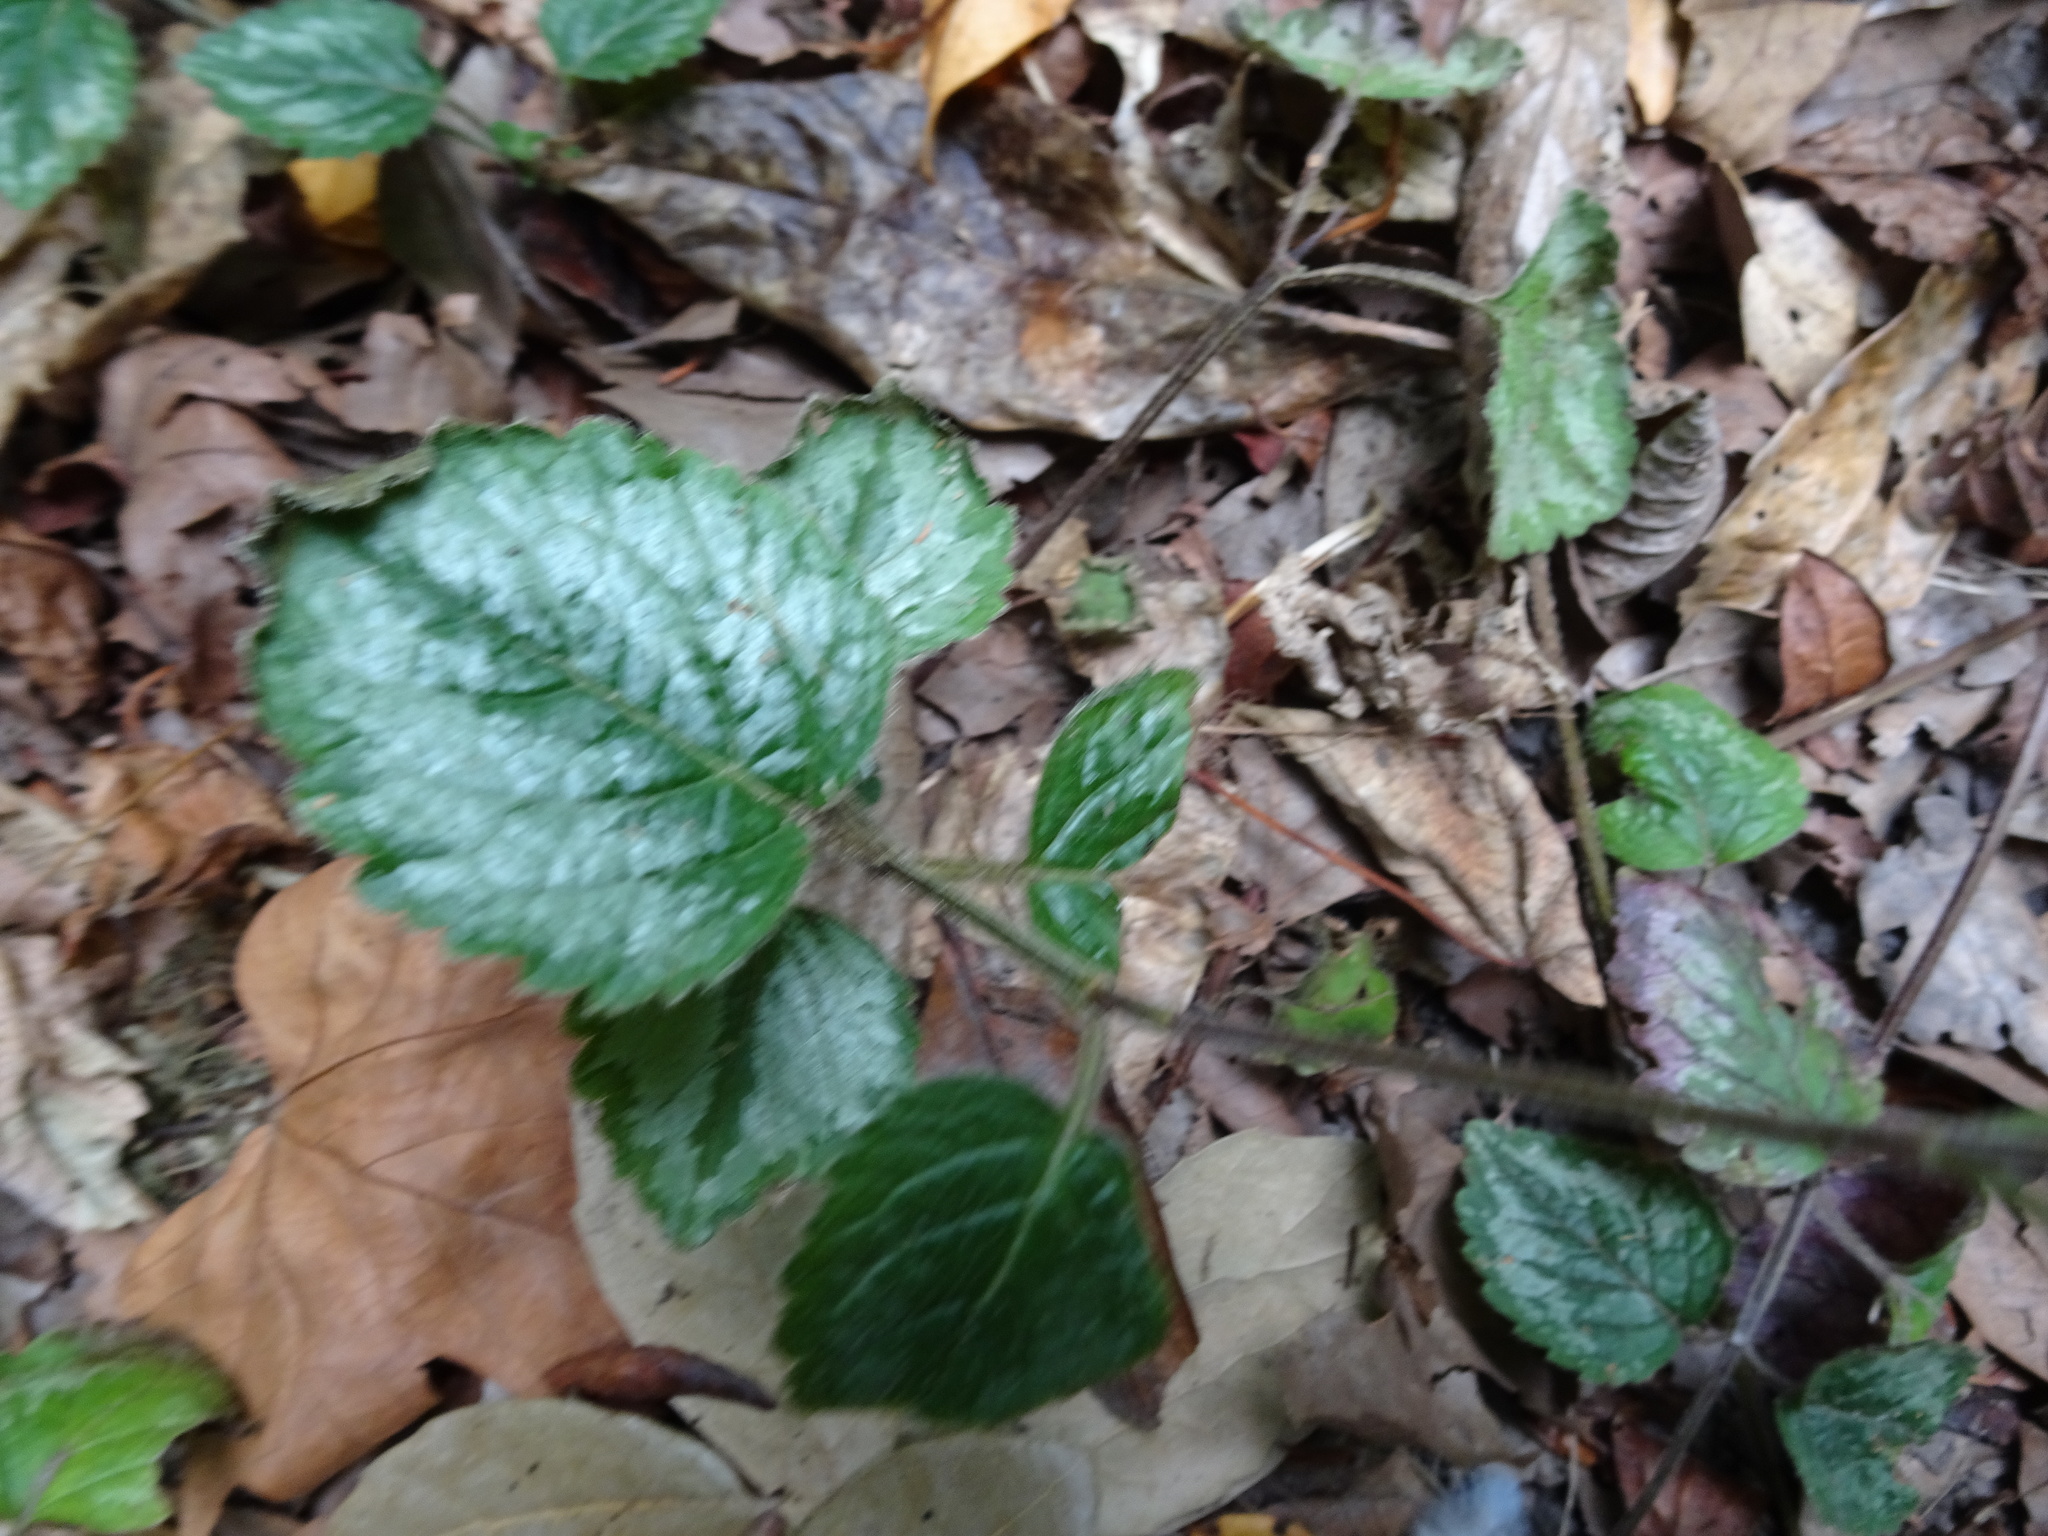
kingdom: Plantae
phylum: Tracheophyta
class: Magnoliopsida
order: Lamiales
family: Lamiaceae
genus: Lamium
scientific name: Lamium galeobdolon
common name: Yellow archangel
